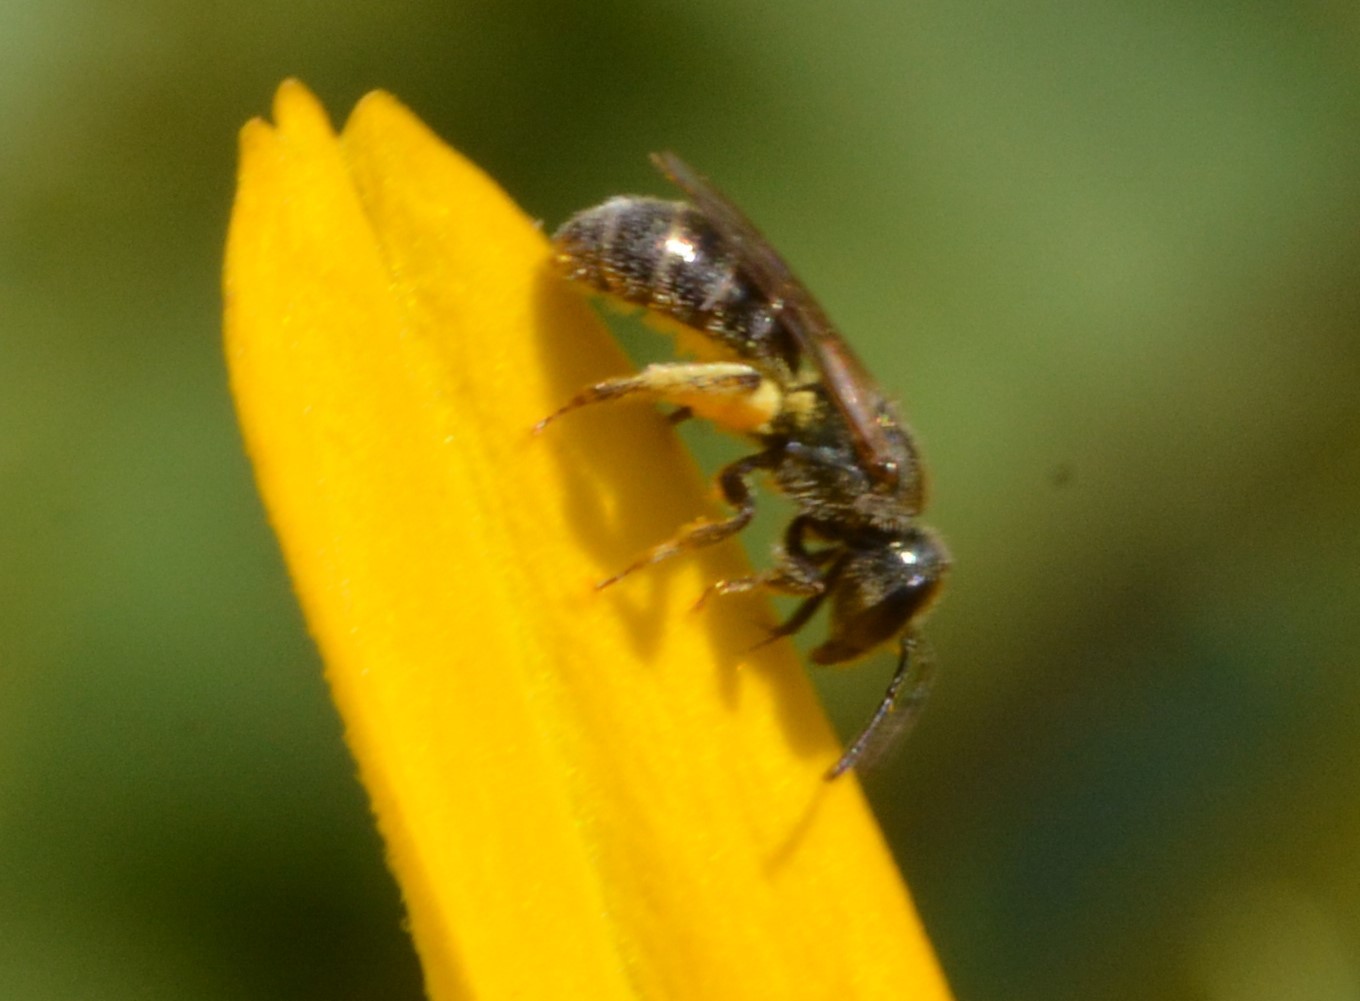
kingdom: Animalia
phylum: Arthropoda
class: Insecta
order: Hymenoptera
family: Halictidae
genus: Dialictus
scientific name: Dialictus
